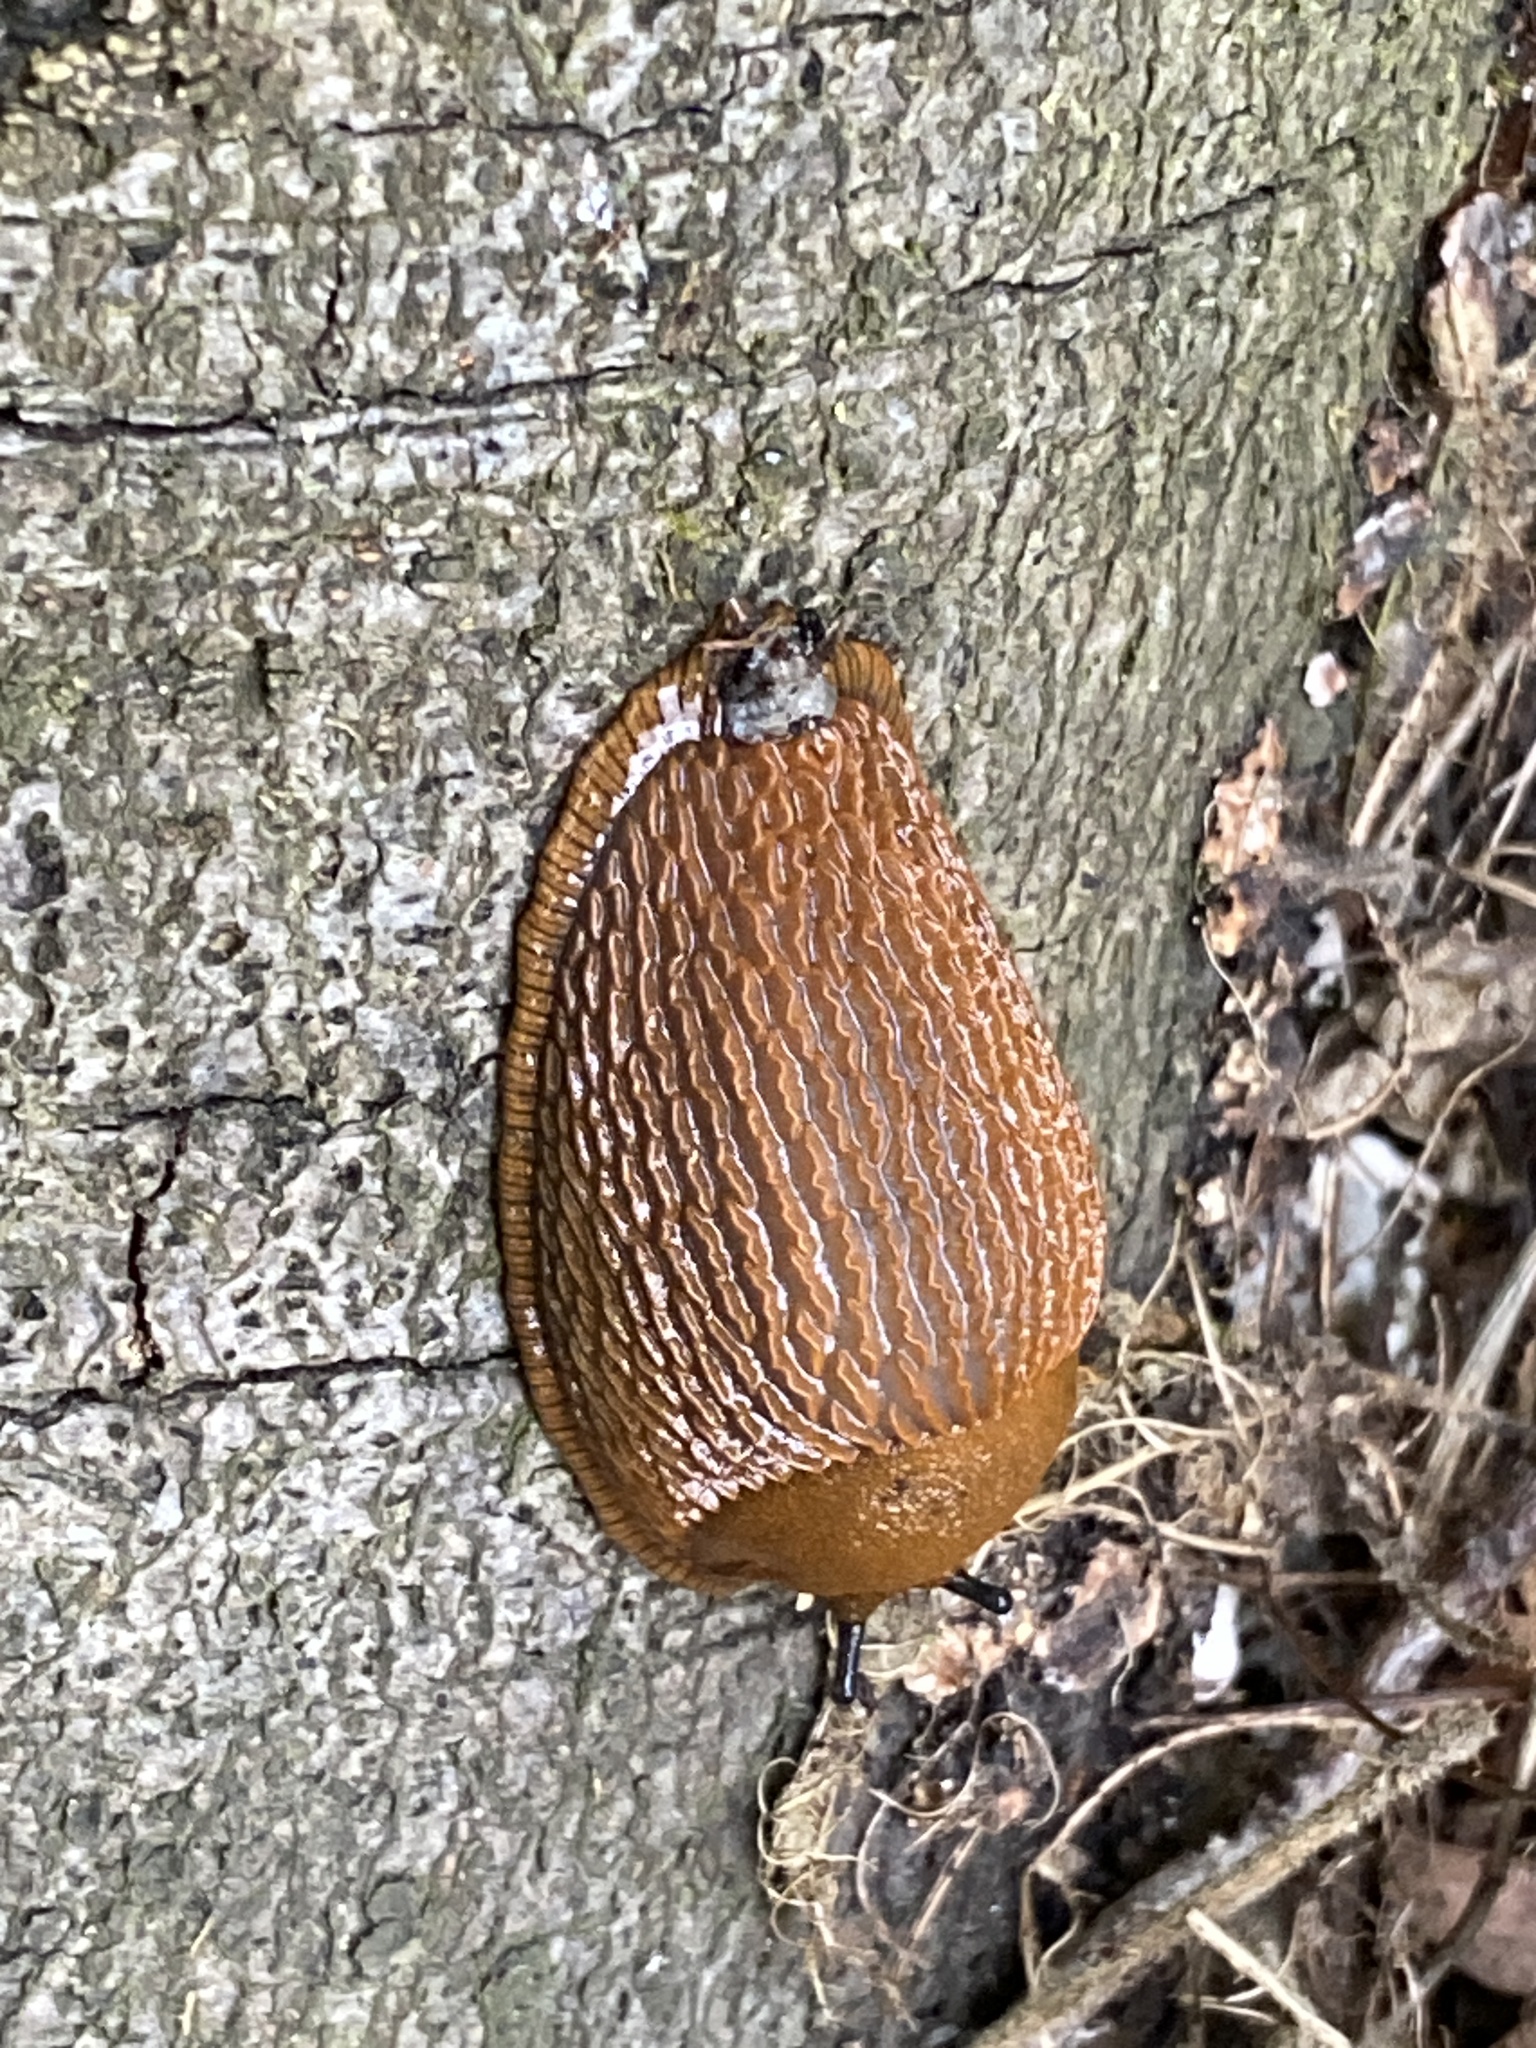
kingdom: Animalia
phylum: Mollusca
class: Gastropoda
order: Stylommatophora
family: Arionidae
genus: Arion
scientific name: Arion vulgaris
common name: Lusitanian slug
